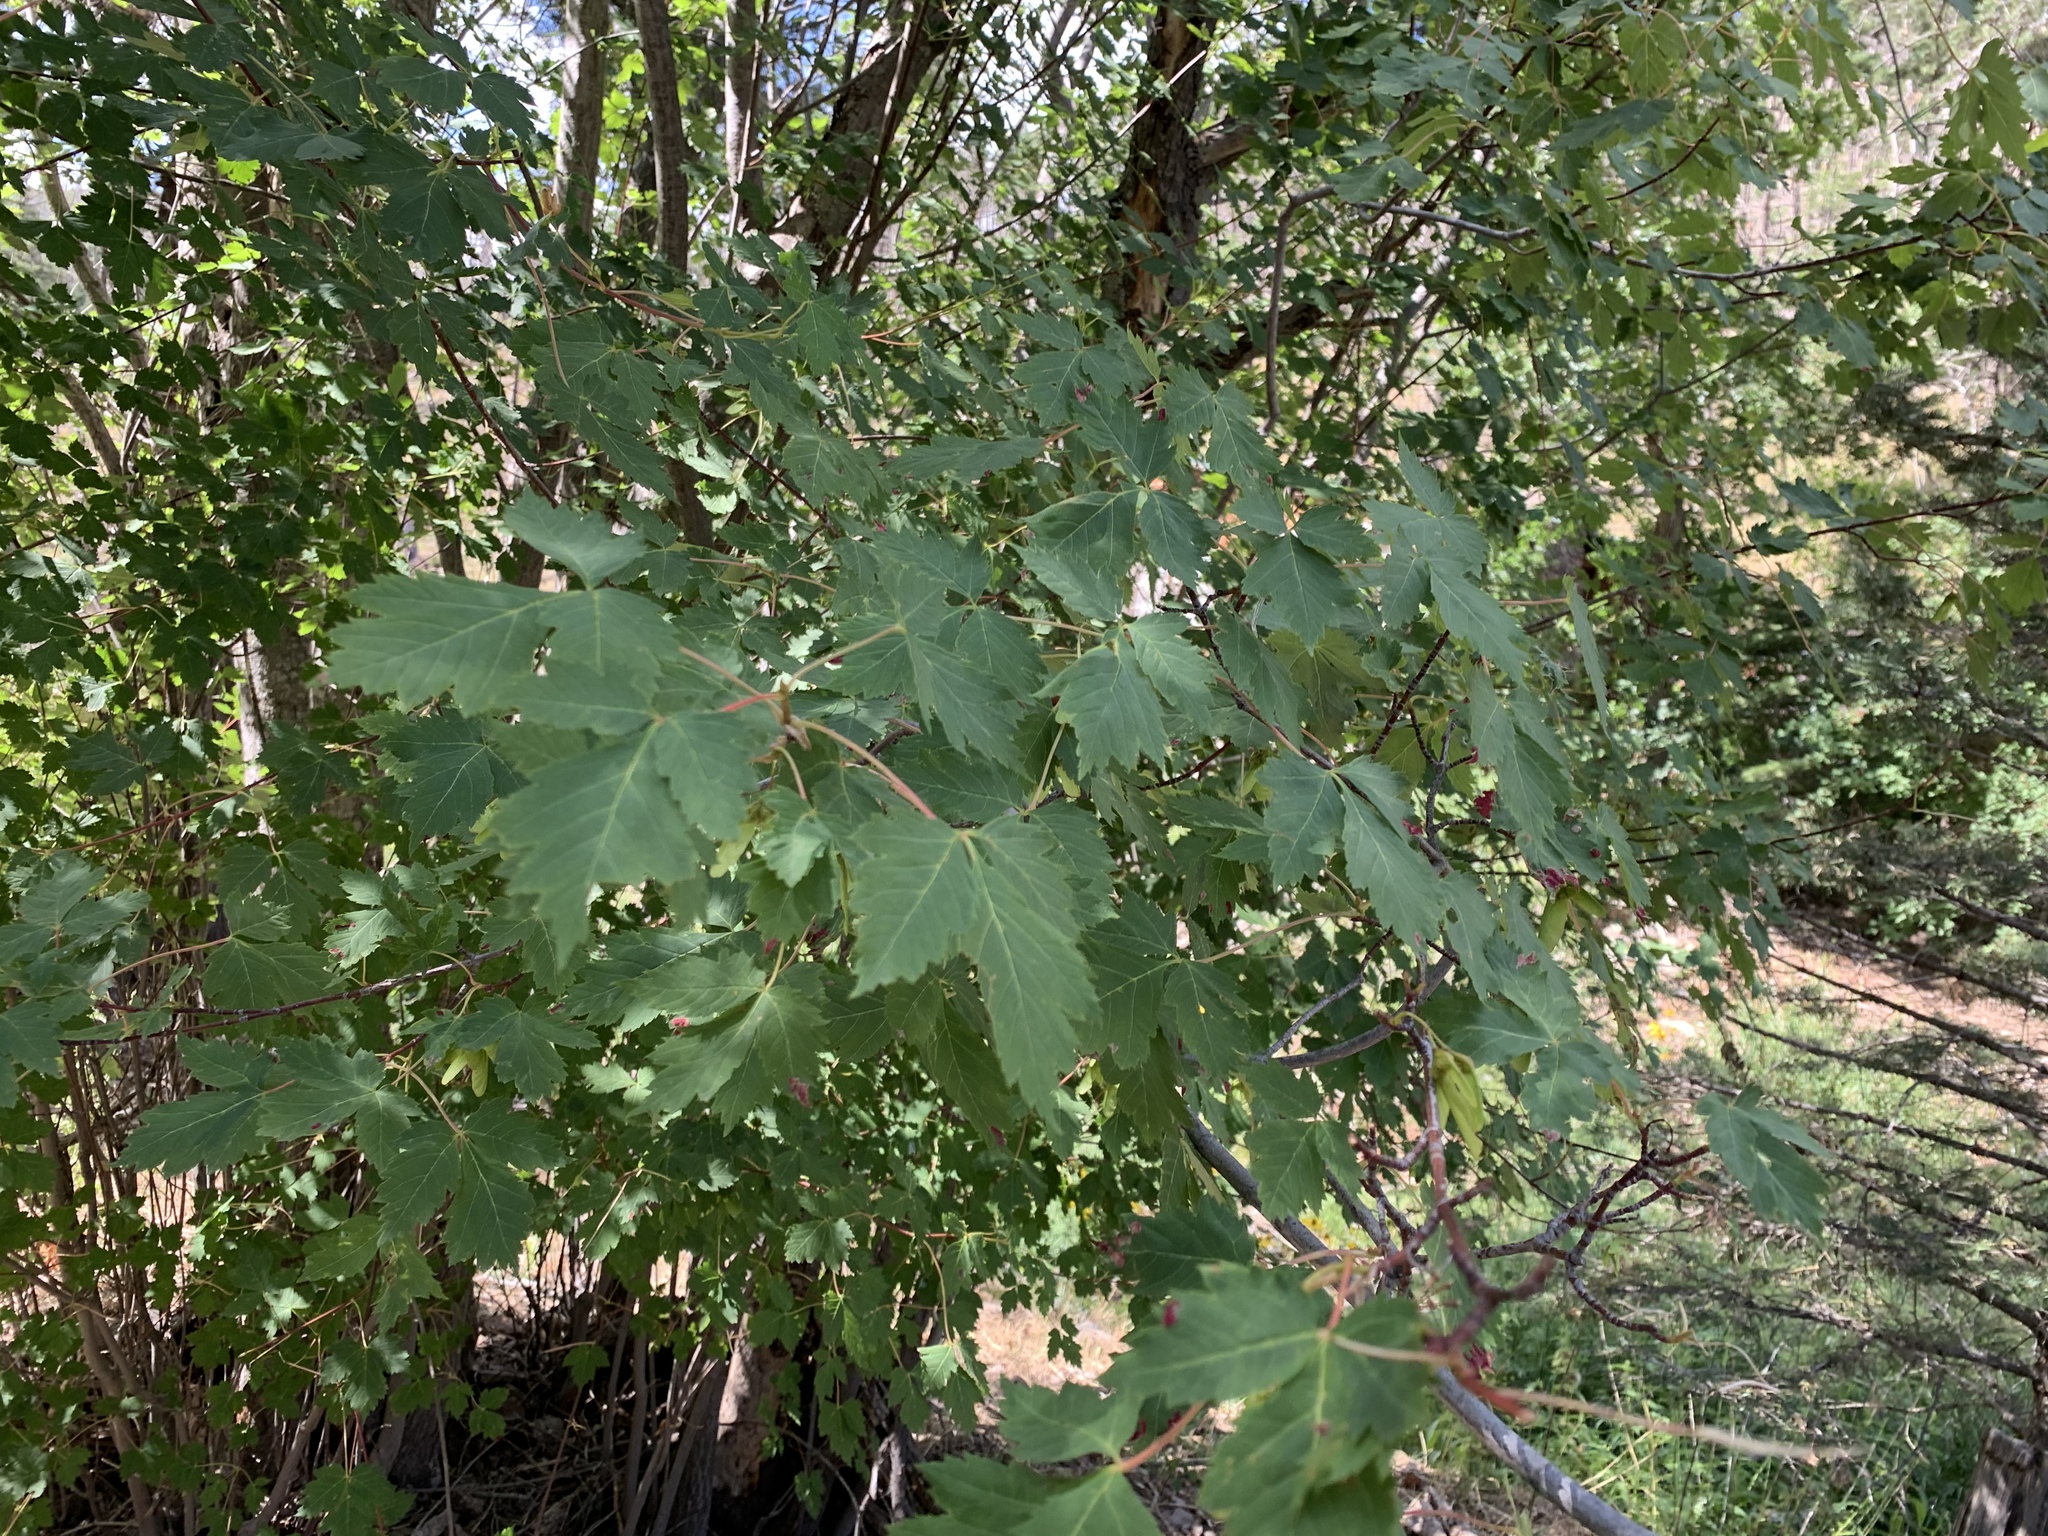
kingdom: Plantae
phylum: Tracheophyta
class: Magnoliopsida
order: Sapindales
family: Sapindaceae
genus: Acer
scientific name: Acer glabrum
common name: Rocky mountain maple
